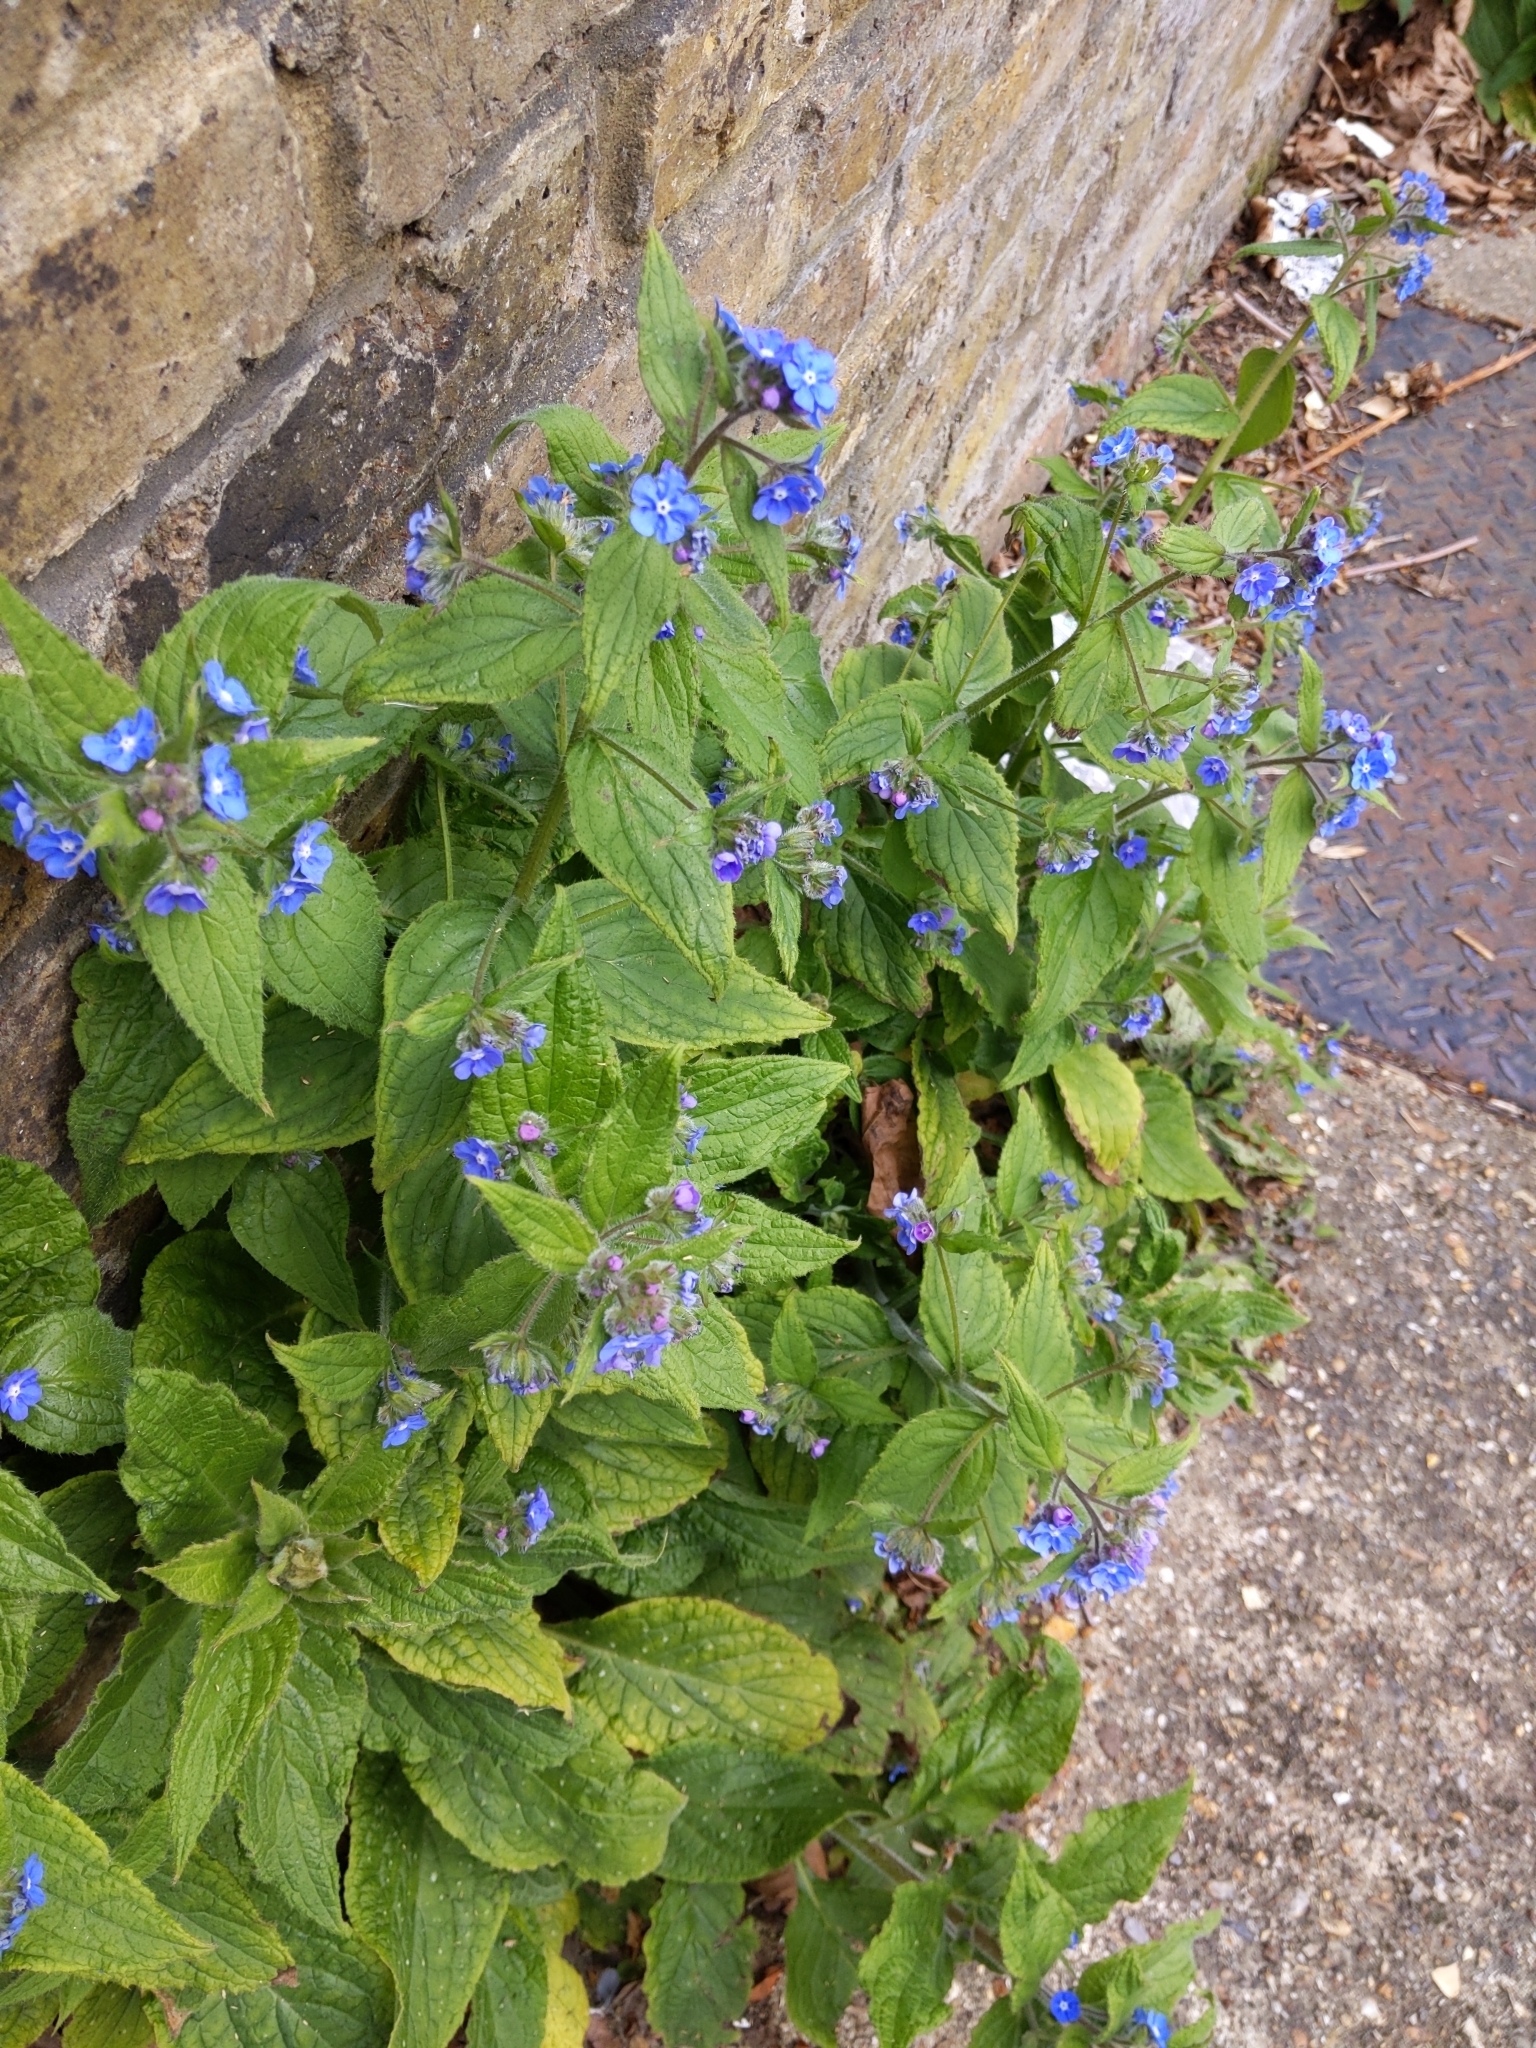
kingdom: Plantae
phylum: Tracheophyta
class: Magnoliopsida
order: Boraginales
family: Boraginaceae
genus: Pentaglottis
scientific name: Pentaglottis sempervirens
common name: Green alkanet
